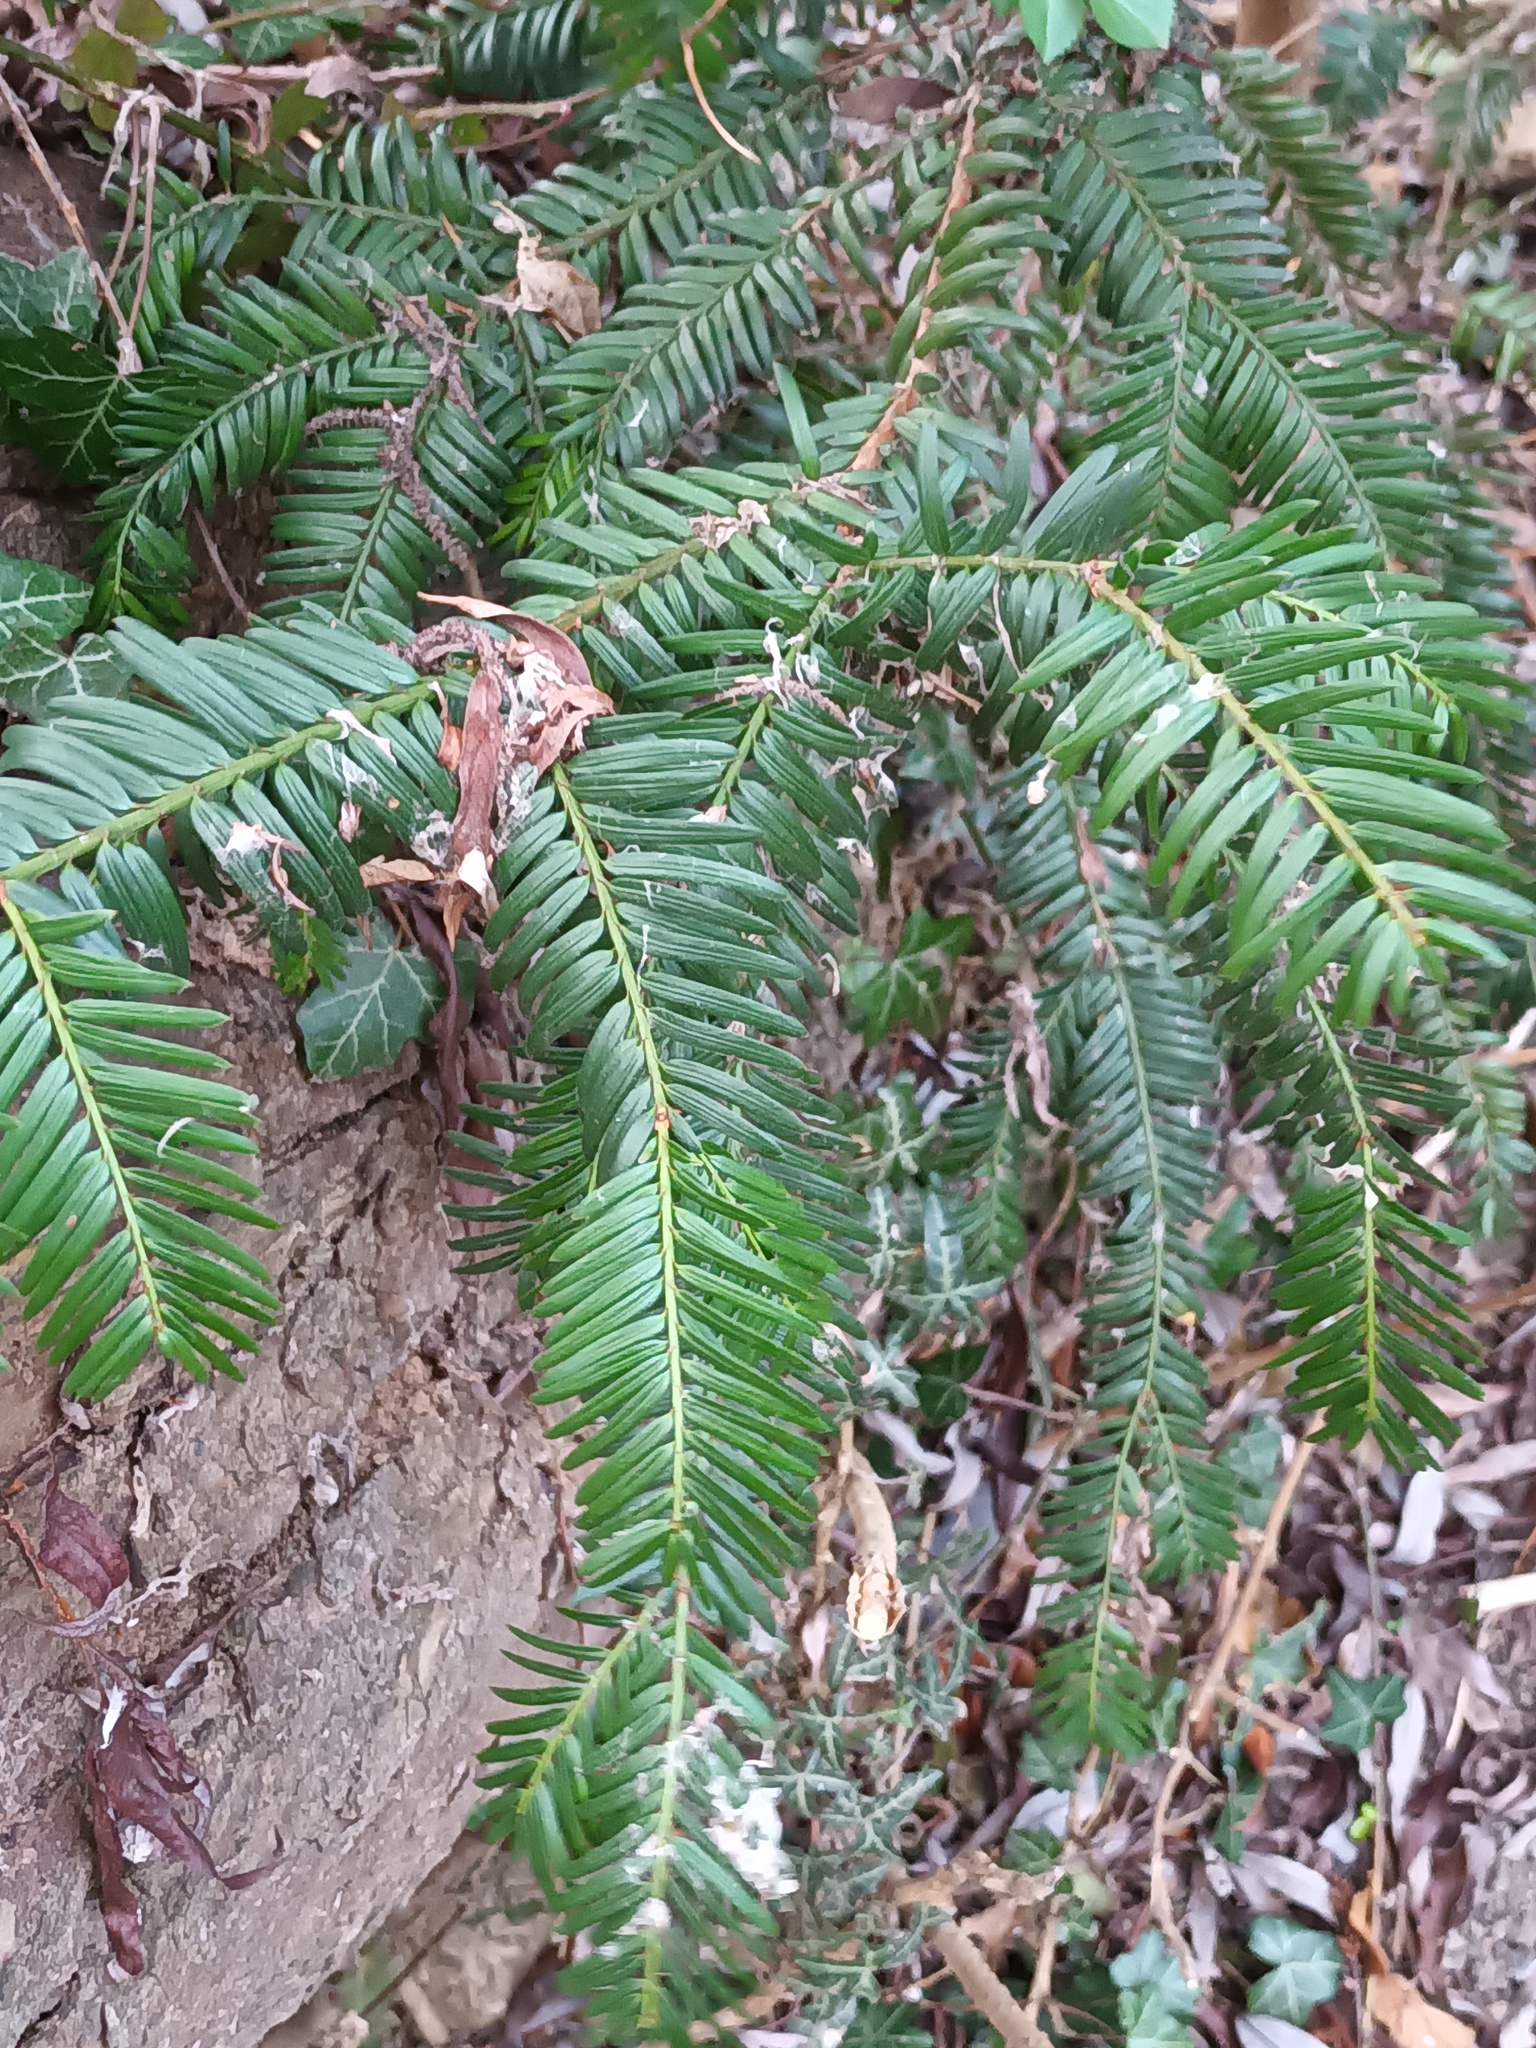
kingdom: Plantae
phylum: Tracheophyta
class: Pinopsida
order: Pinales
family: Taxaceae
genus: Taxus
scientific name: Taxus baccata
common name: Yew
